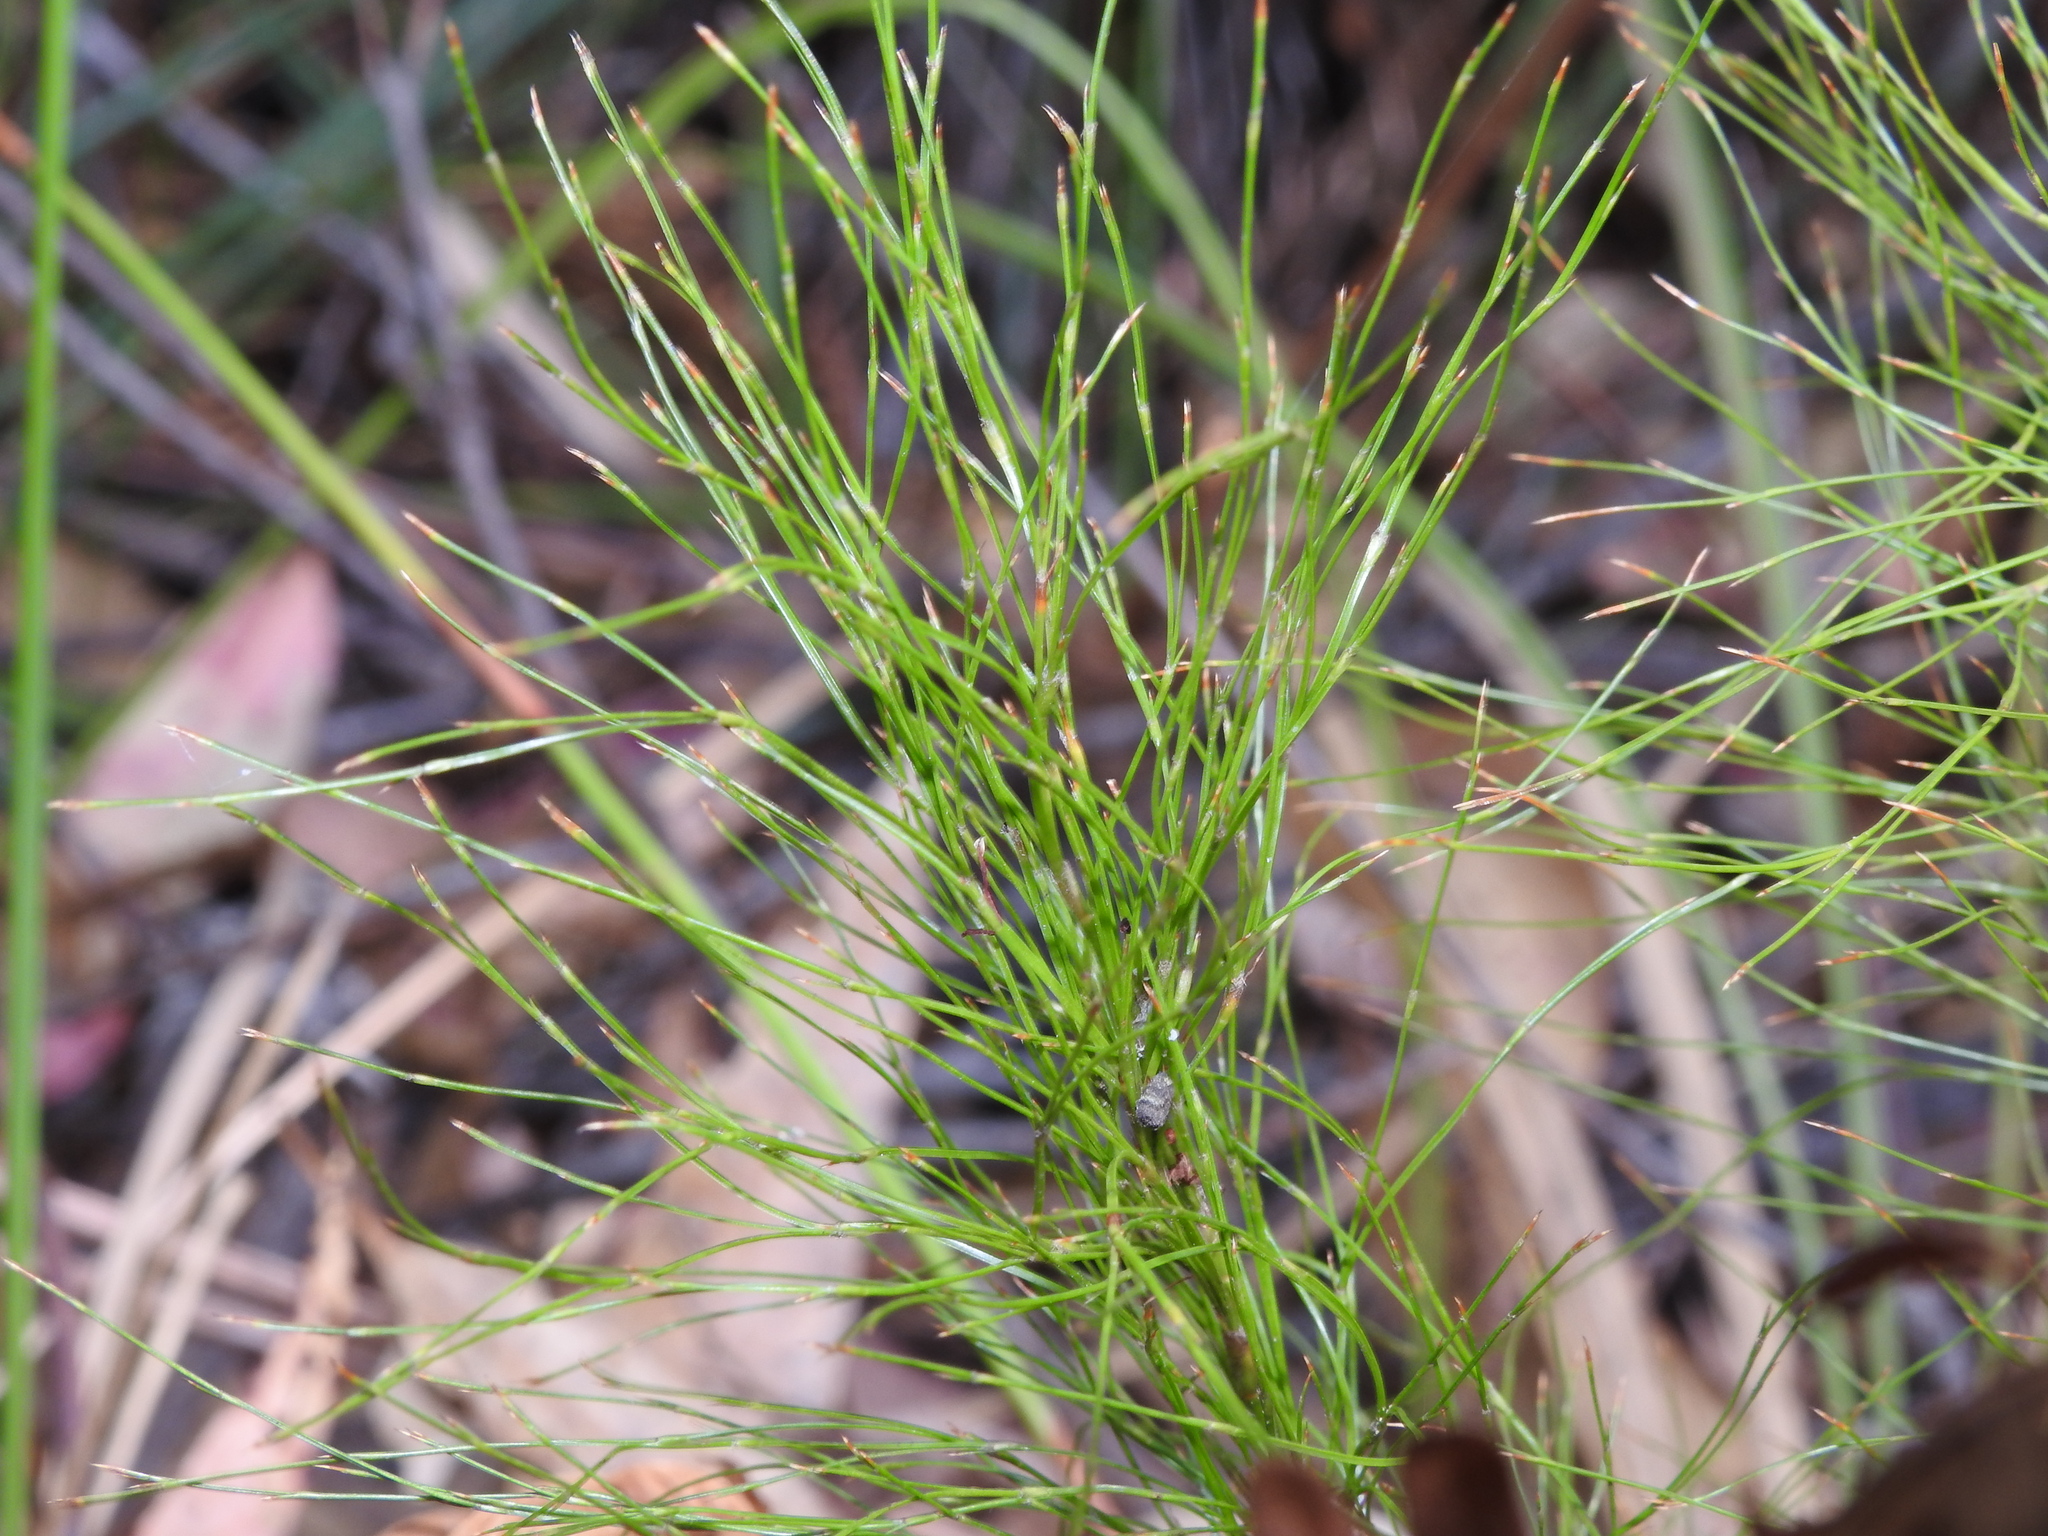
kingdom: Plantae
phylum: Tracheophyta
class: Liliopsida
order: Poales
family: Restionaceae
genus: Baloskion
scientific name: Baloskion tetraphyllum
